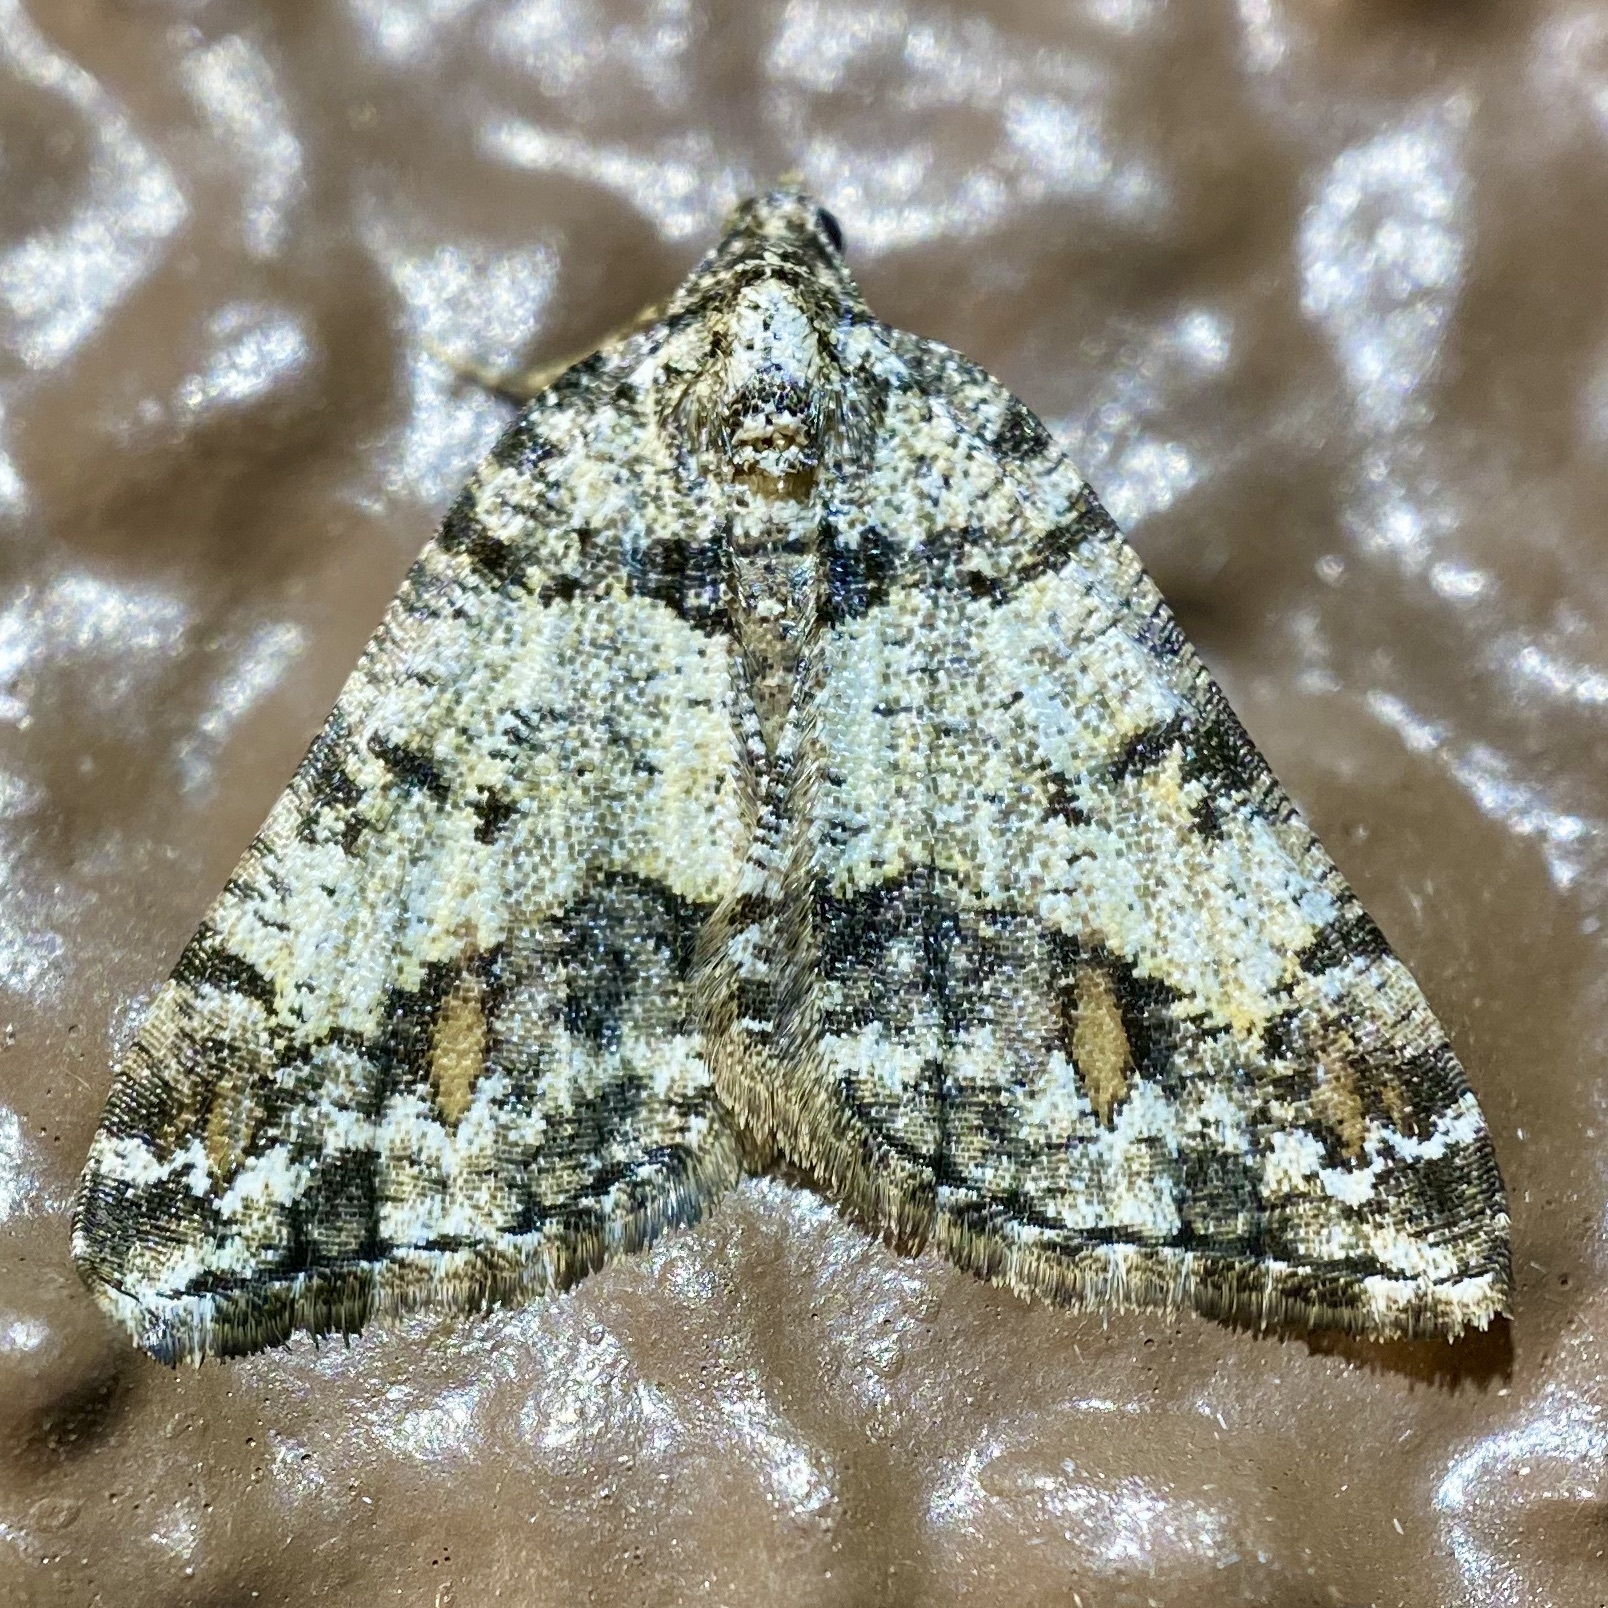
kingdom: Animalia
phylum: Arthropoda
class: Insecta
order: Lepidoptera
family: Geometridae
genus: Macaria
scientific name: Macaria deceptrix
